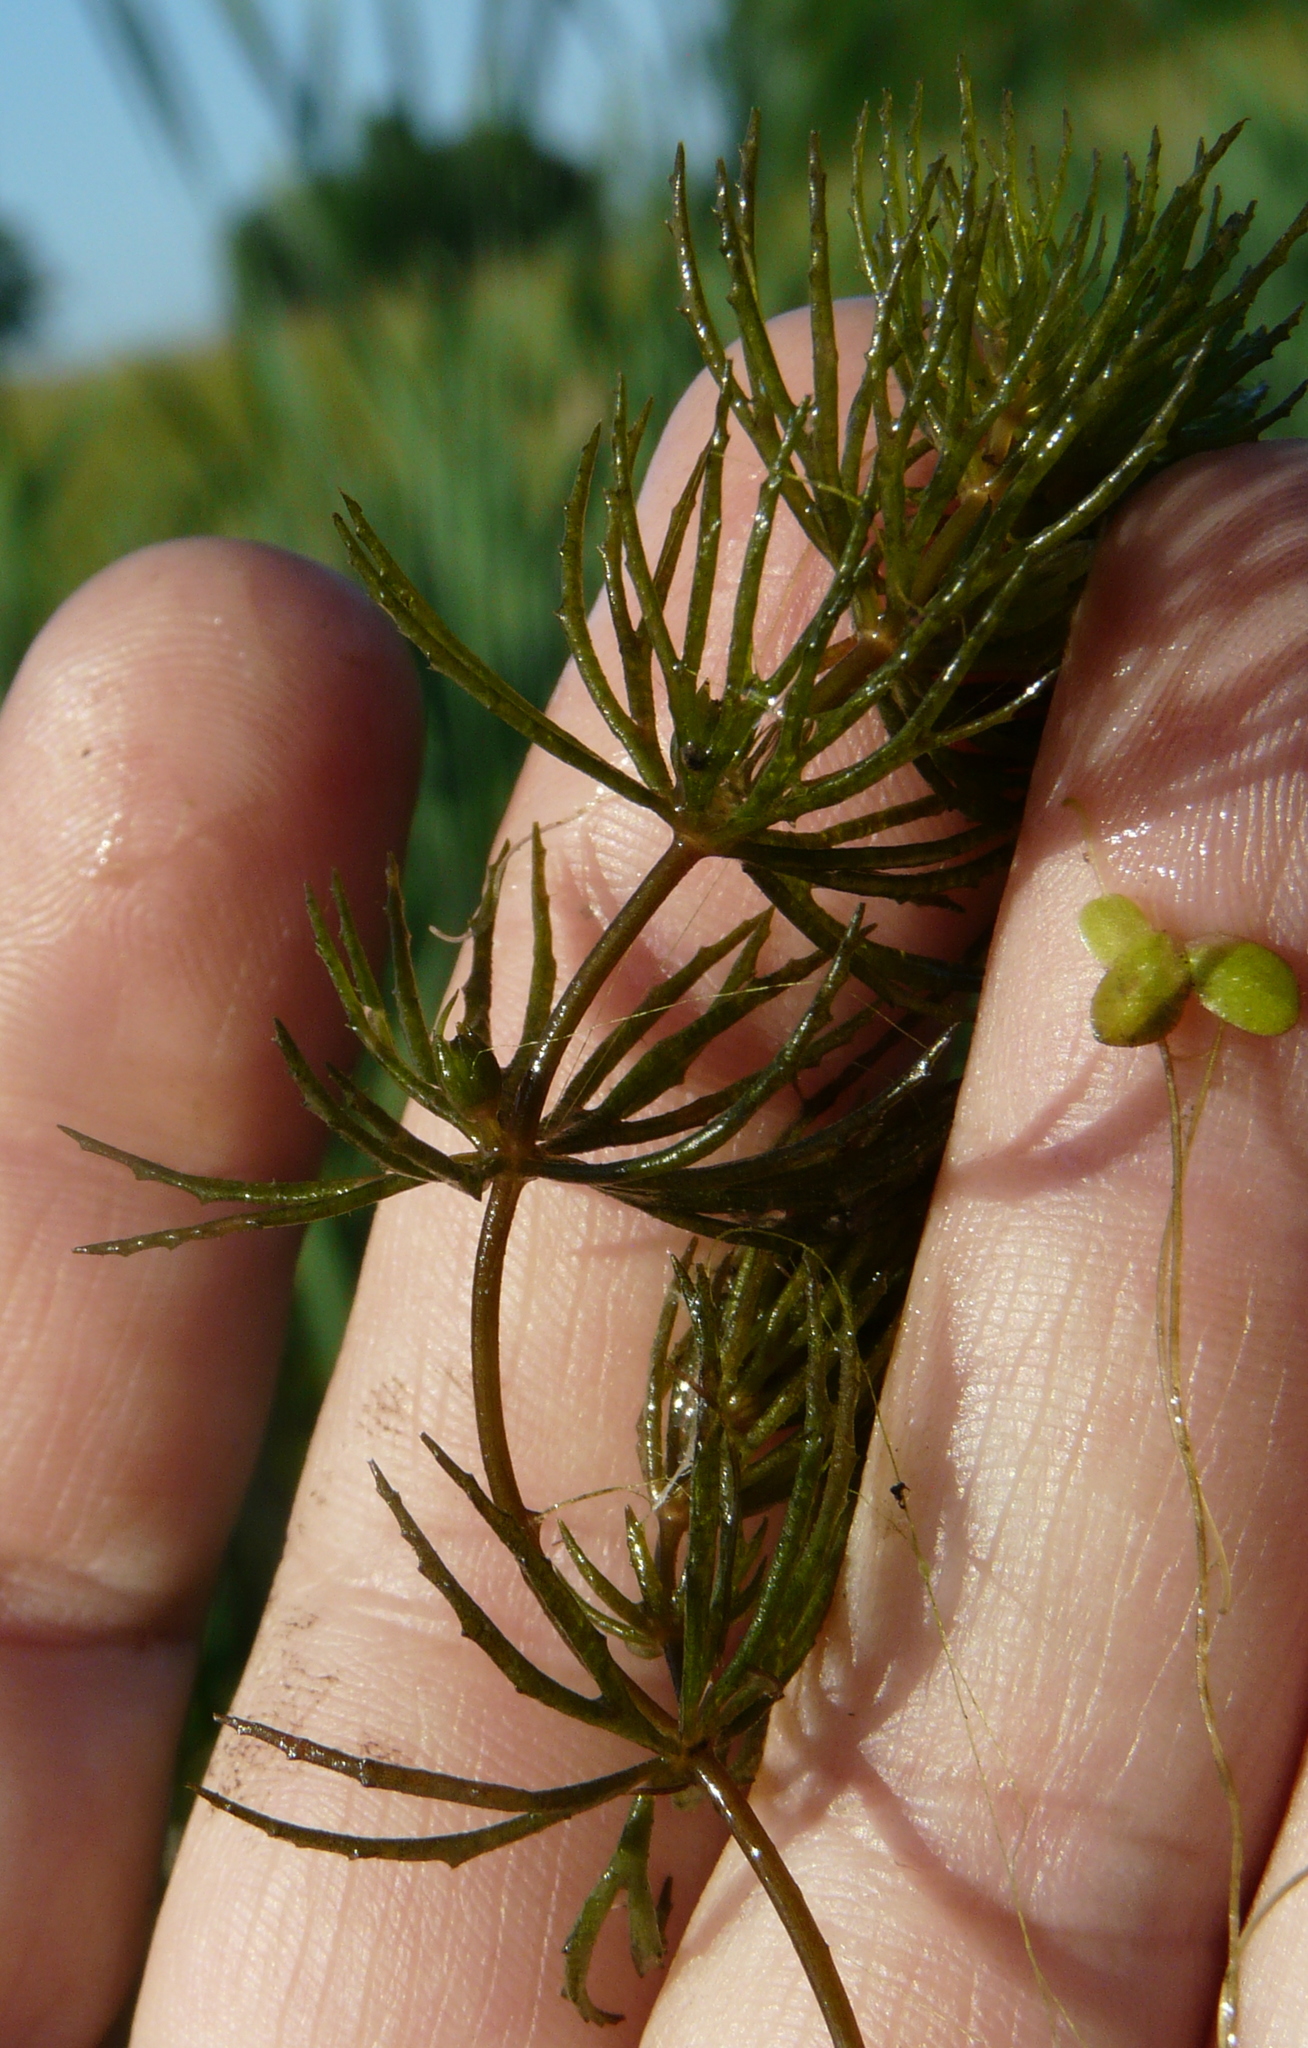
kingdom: Plantae
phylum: Tracheophyta
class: Magnoliopsida
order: Ceratophyllales
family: Ceratophyllaceae
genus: Ceratophyllum
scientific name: Ceratophyllum demersum
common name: Rigid hornwort
